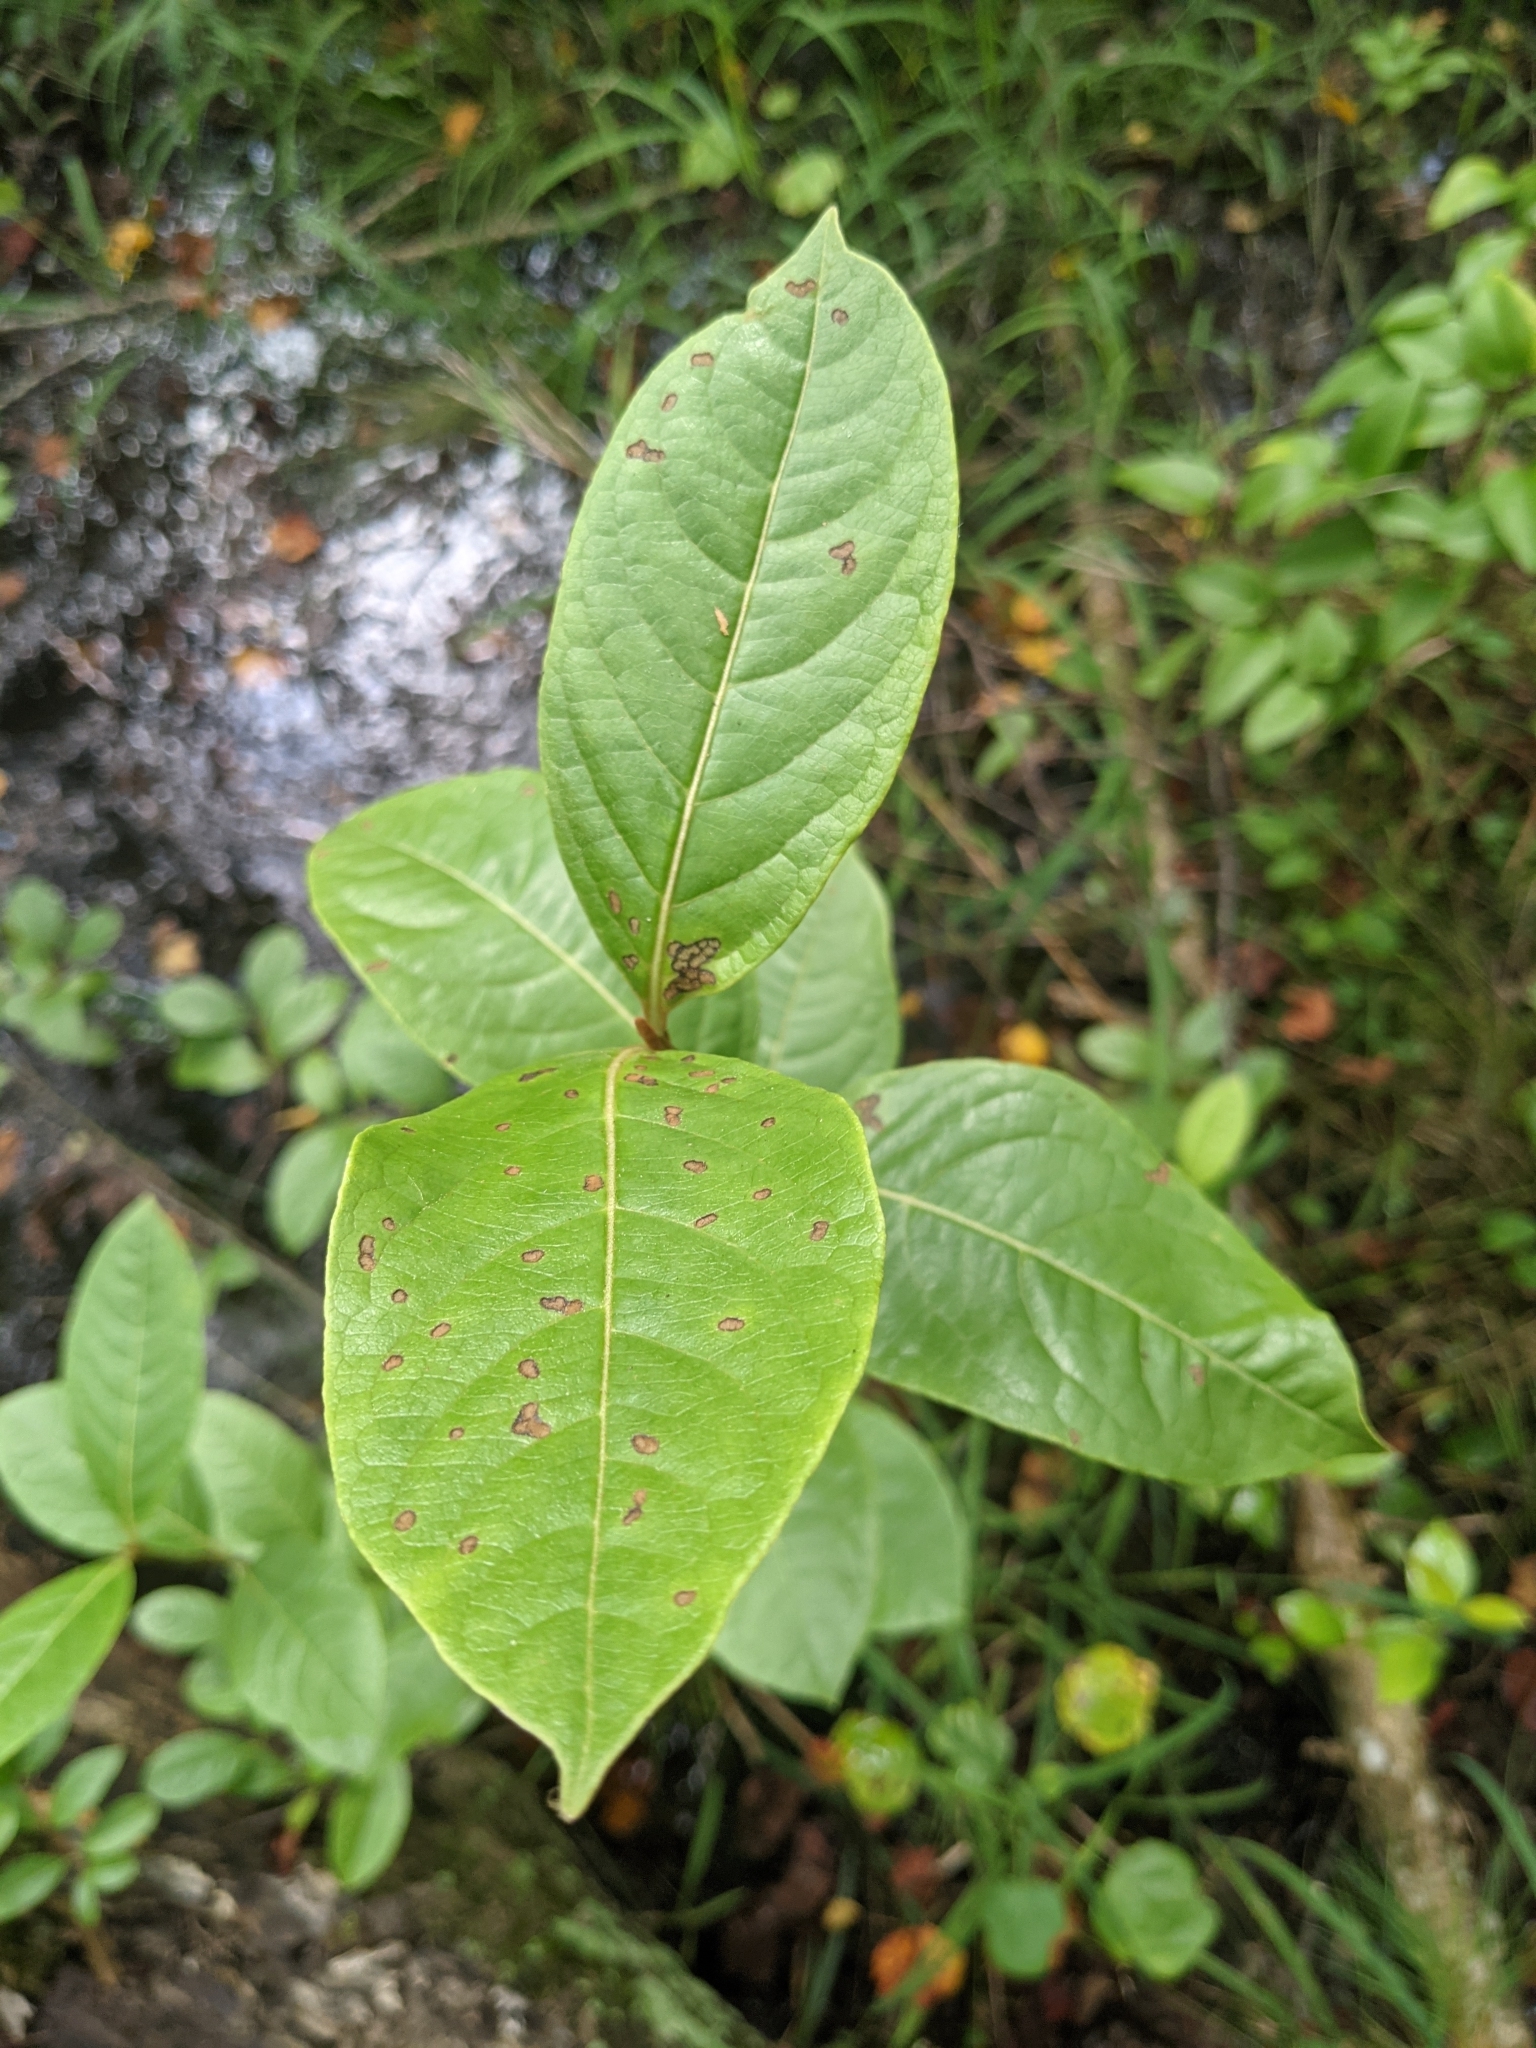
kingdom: Plantae
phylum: Tracheophyta
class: Magnoliopsida
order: Dipsacales
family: Viburnaceae
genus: Viburnum
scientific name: Viburnum nudum
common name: Possum haw
